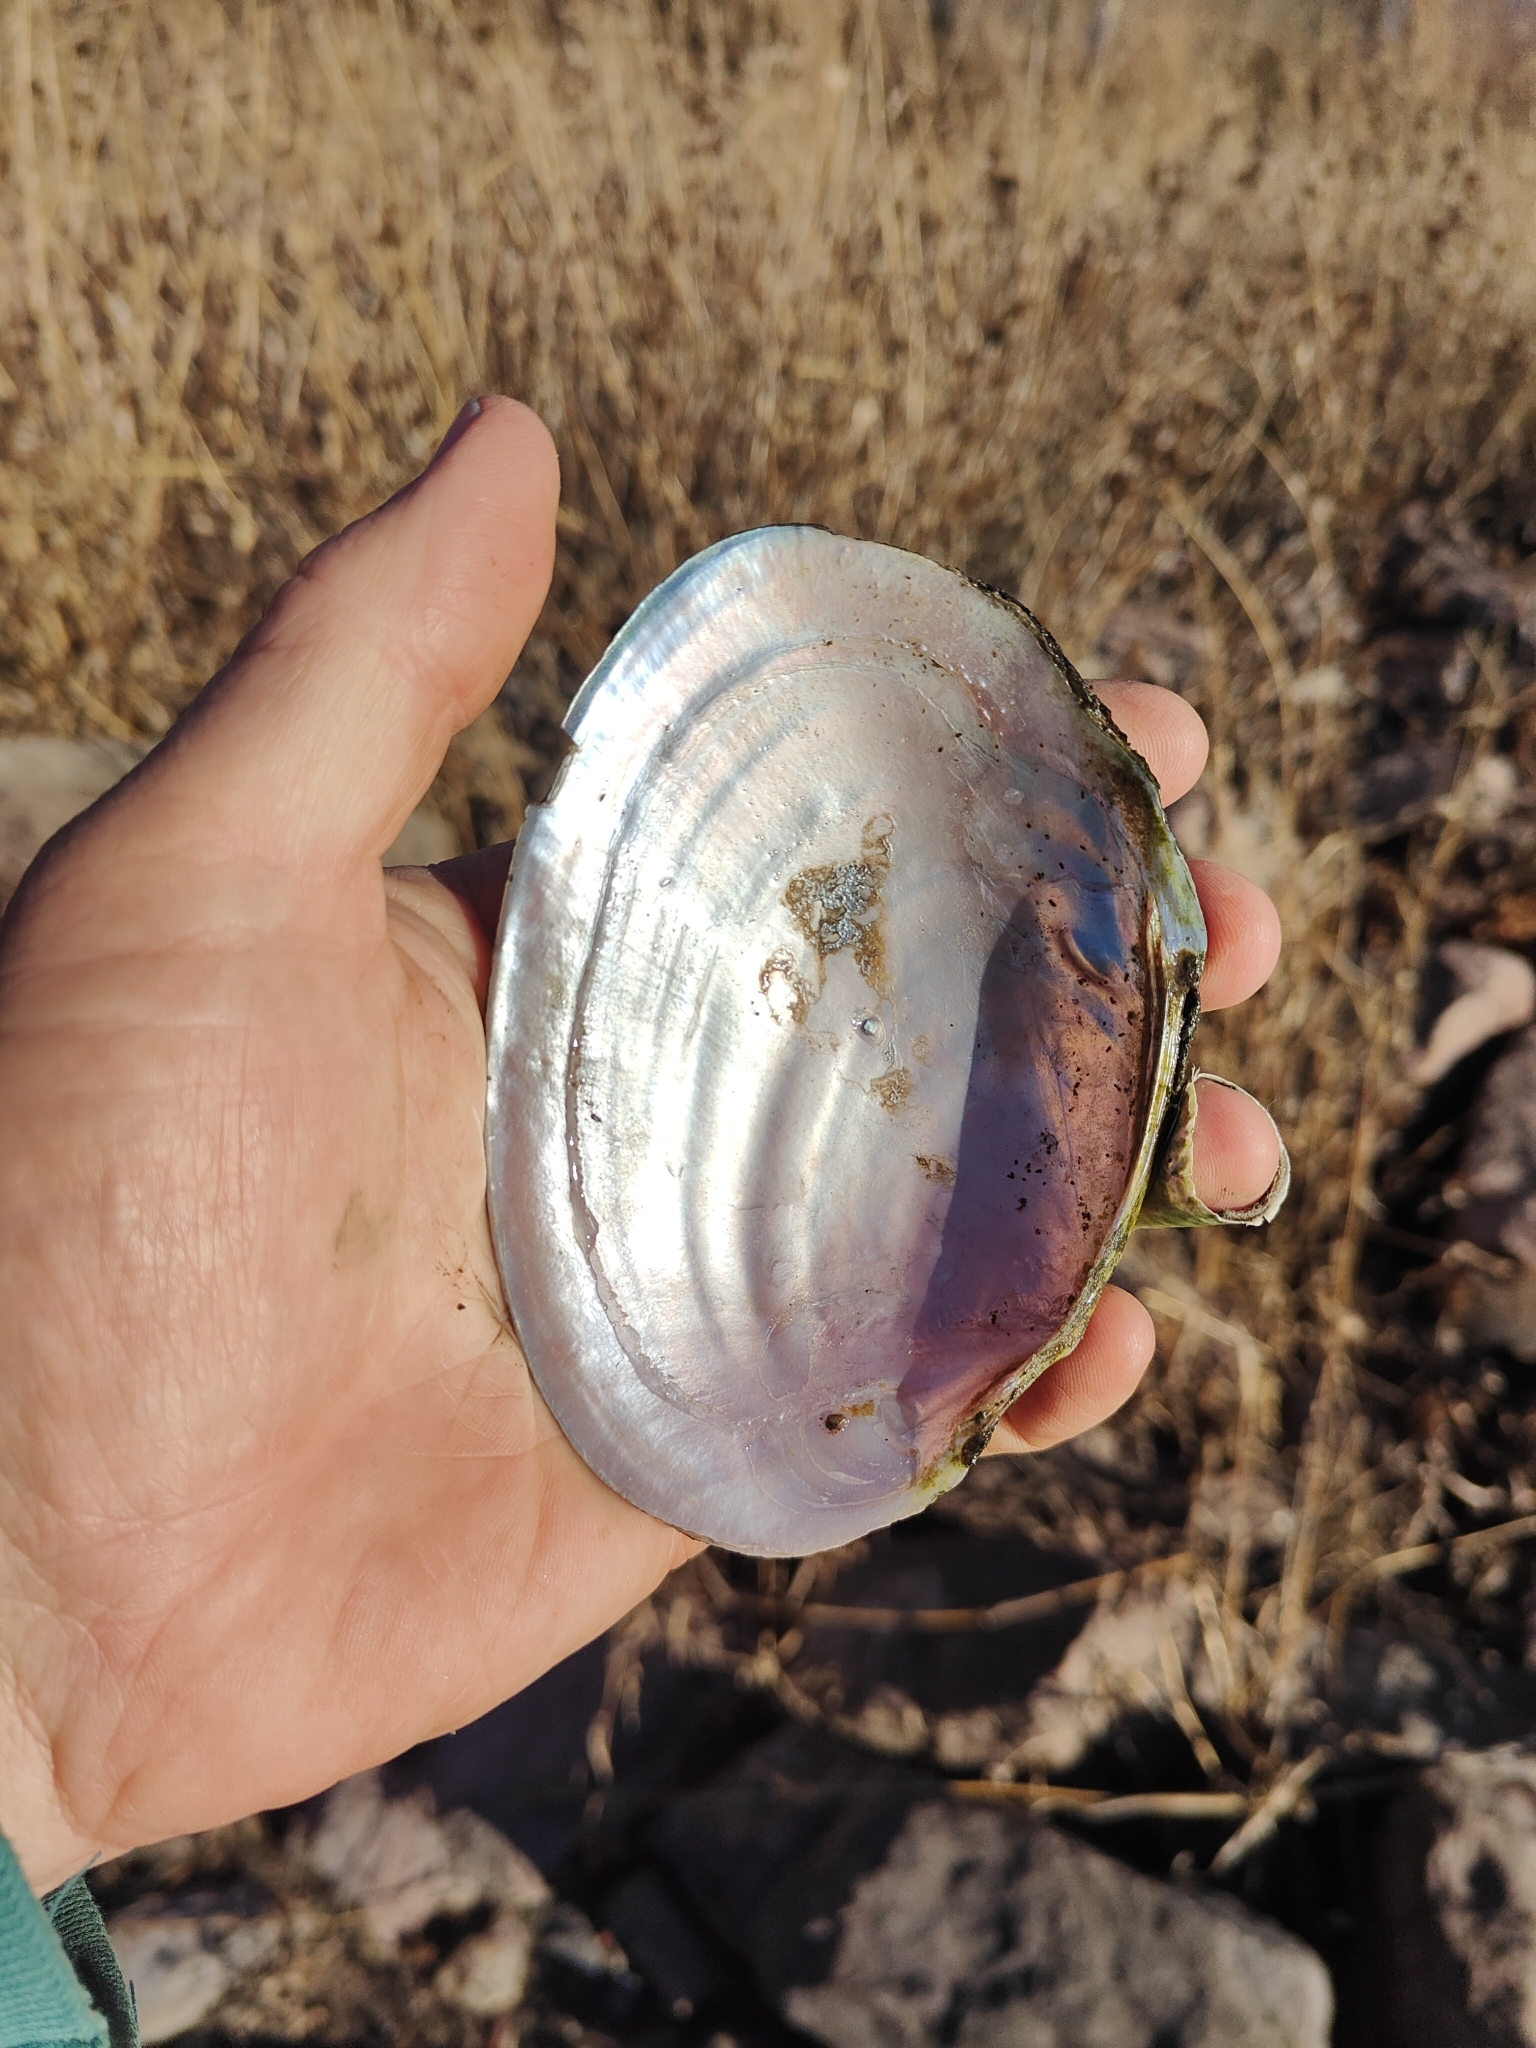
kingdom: Animalia
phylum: Mollusca
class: Bivalvia
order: Unionida
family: Unionidae
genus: Potamilus
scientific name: Potamilus ohiensis
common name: Pink papershell
